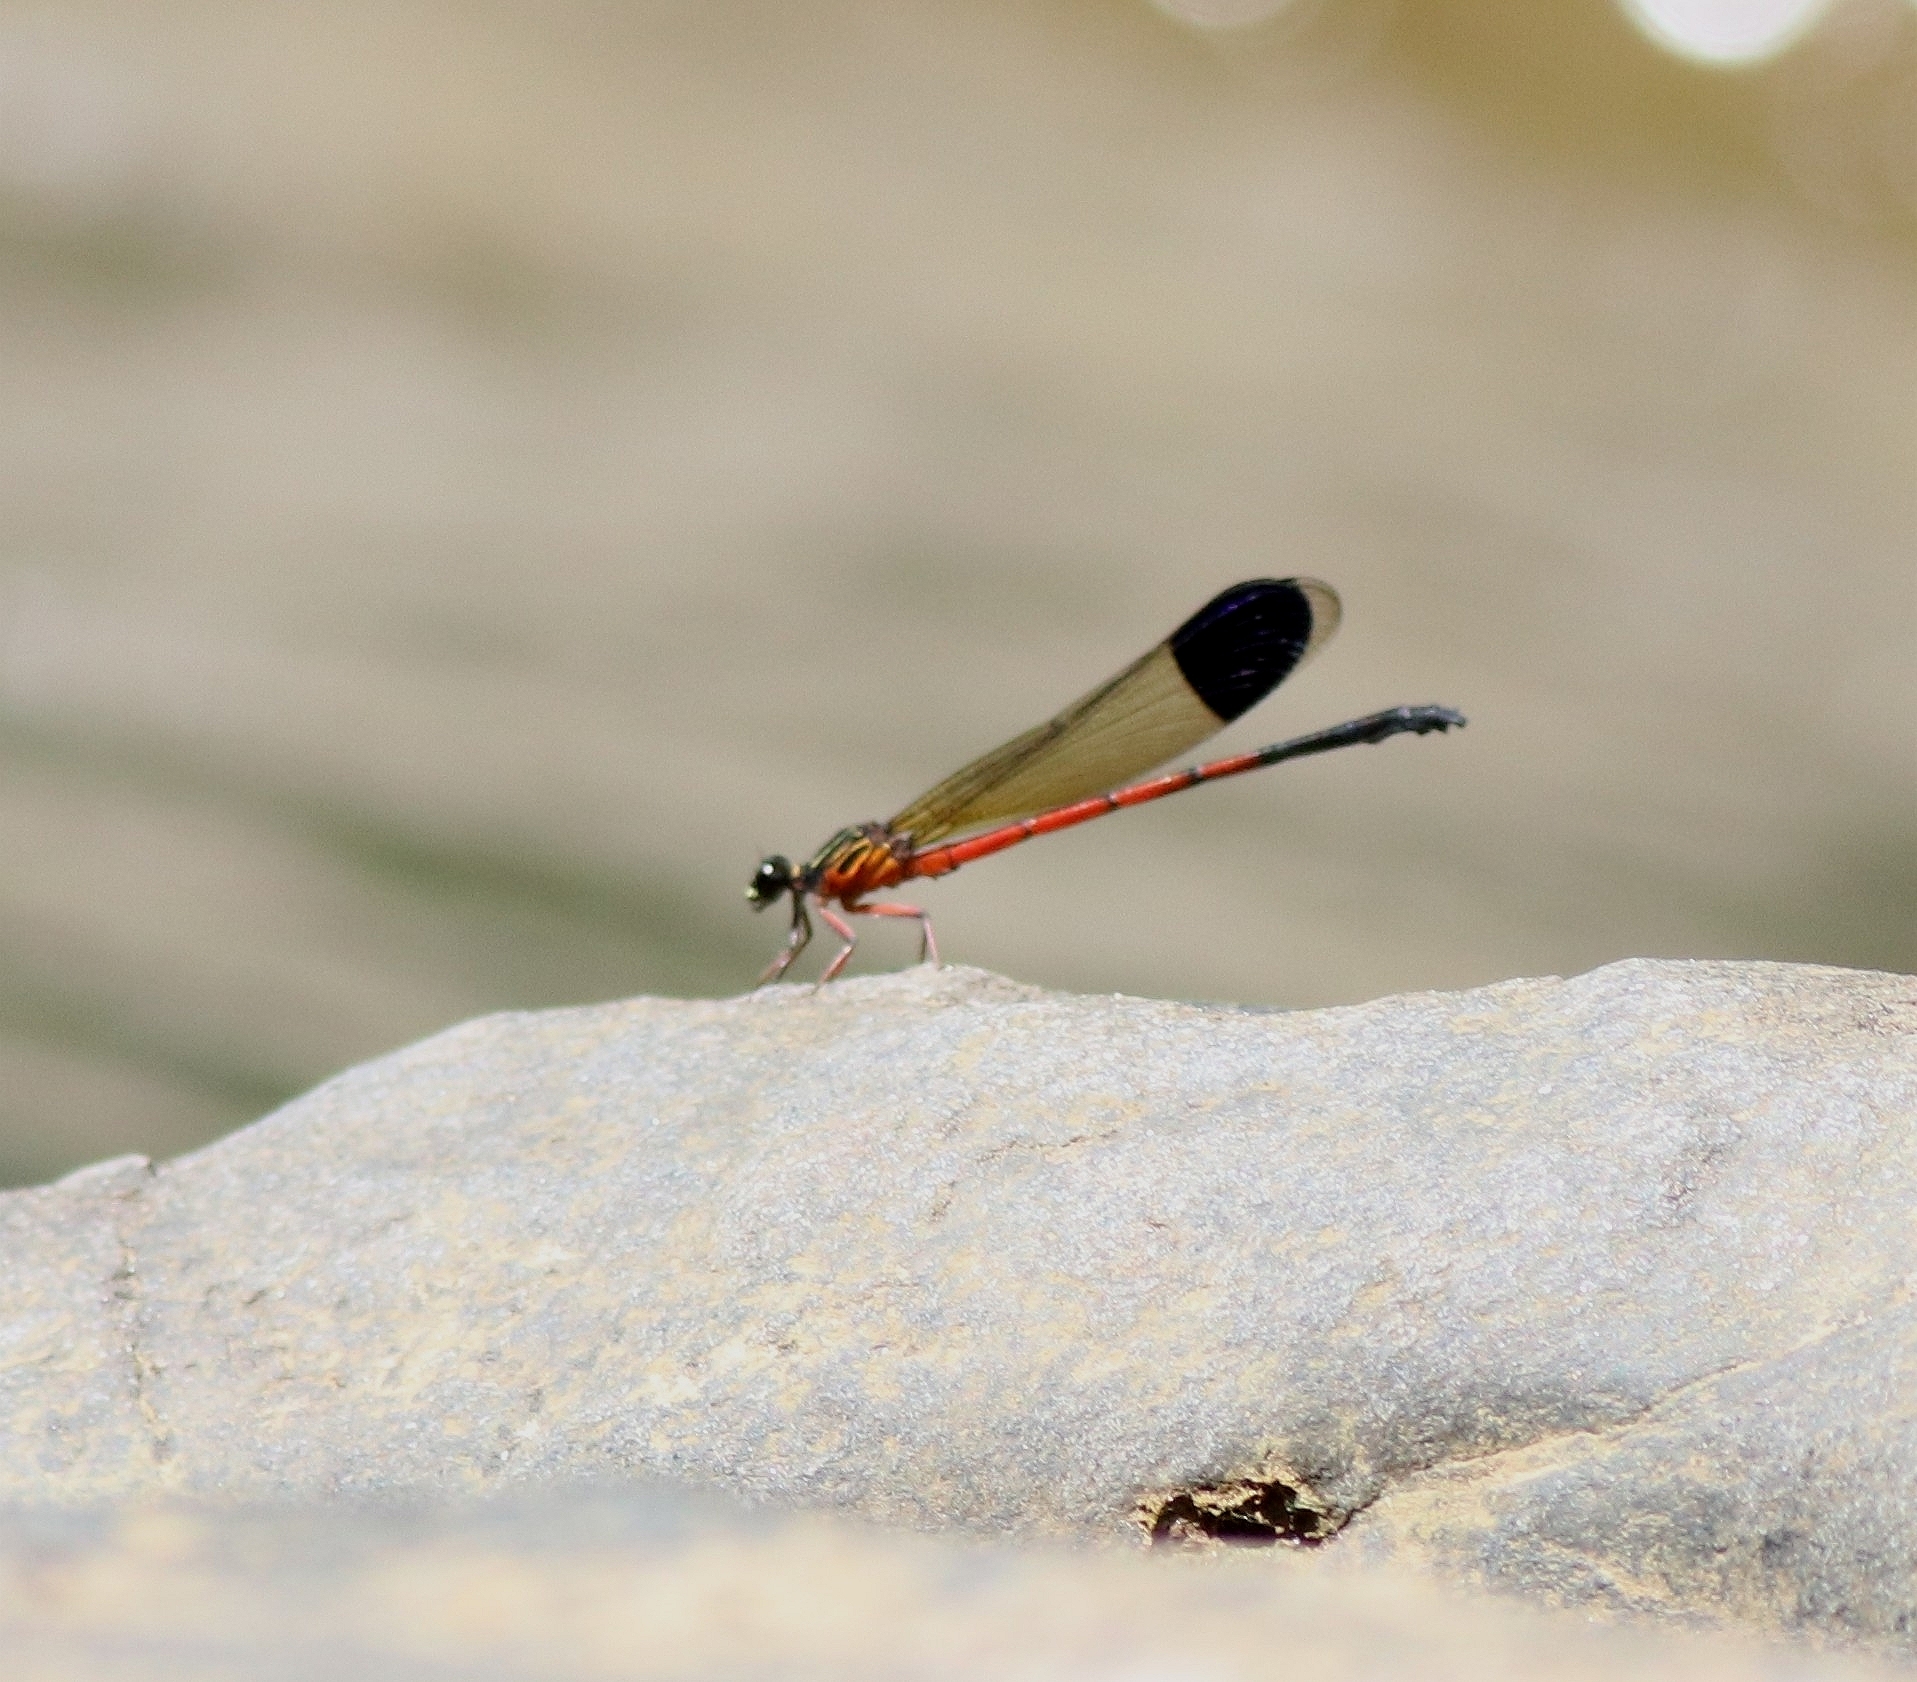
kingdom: Animalia
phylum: Arthropoda
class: Insecta
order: Odonata
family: Euphaeidae
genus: Euphaea
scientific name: Euphaea fraseri
